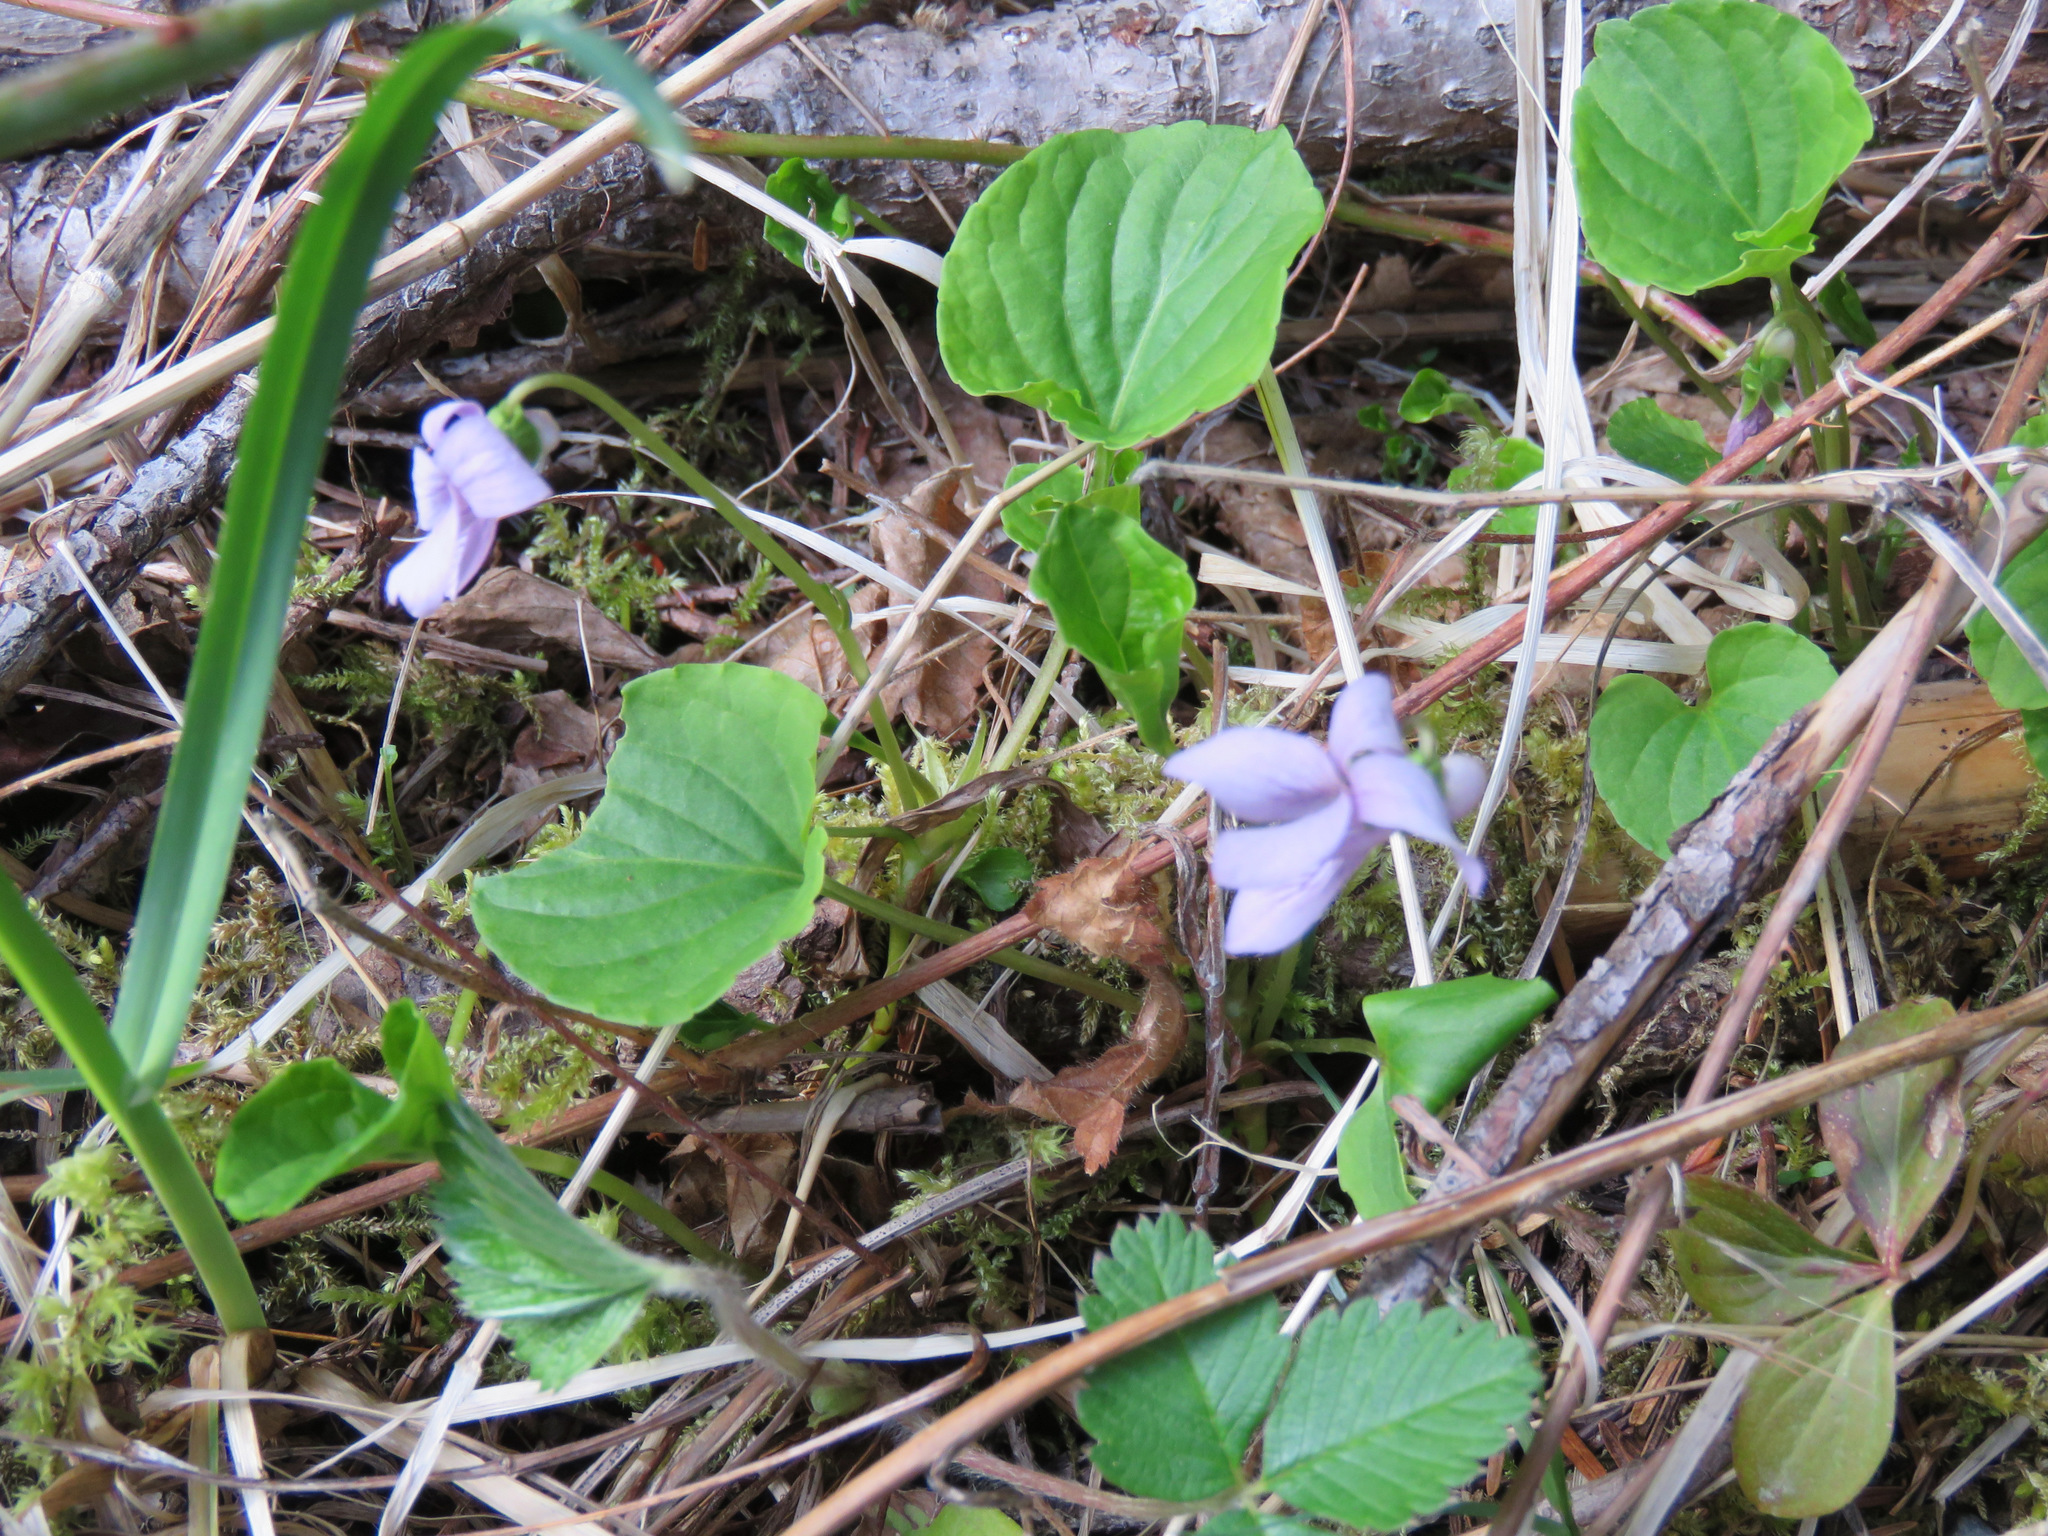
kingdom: Plantae
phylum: Tracheophyta
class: Magnoliopsida
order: Malpighiales
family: Violaceae
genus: Viola
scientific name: Viola palustris
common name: Marsh violet
